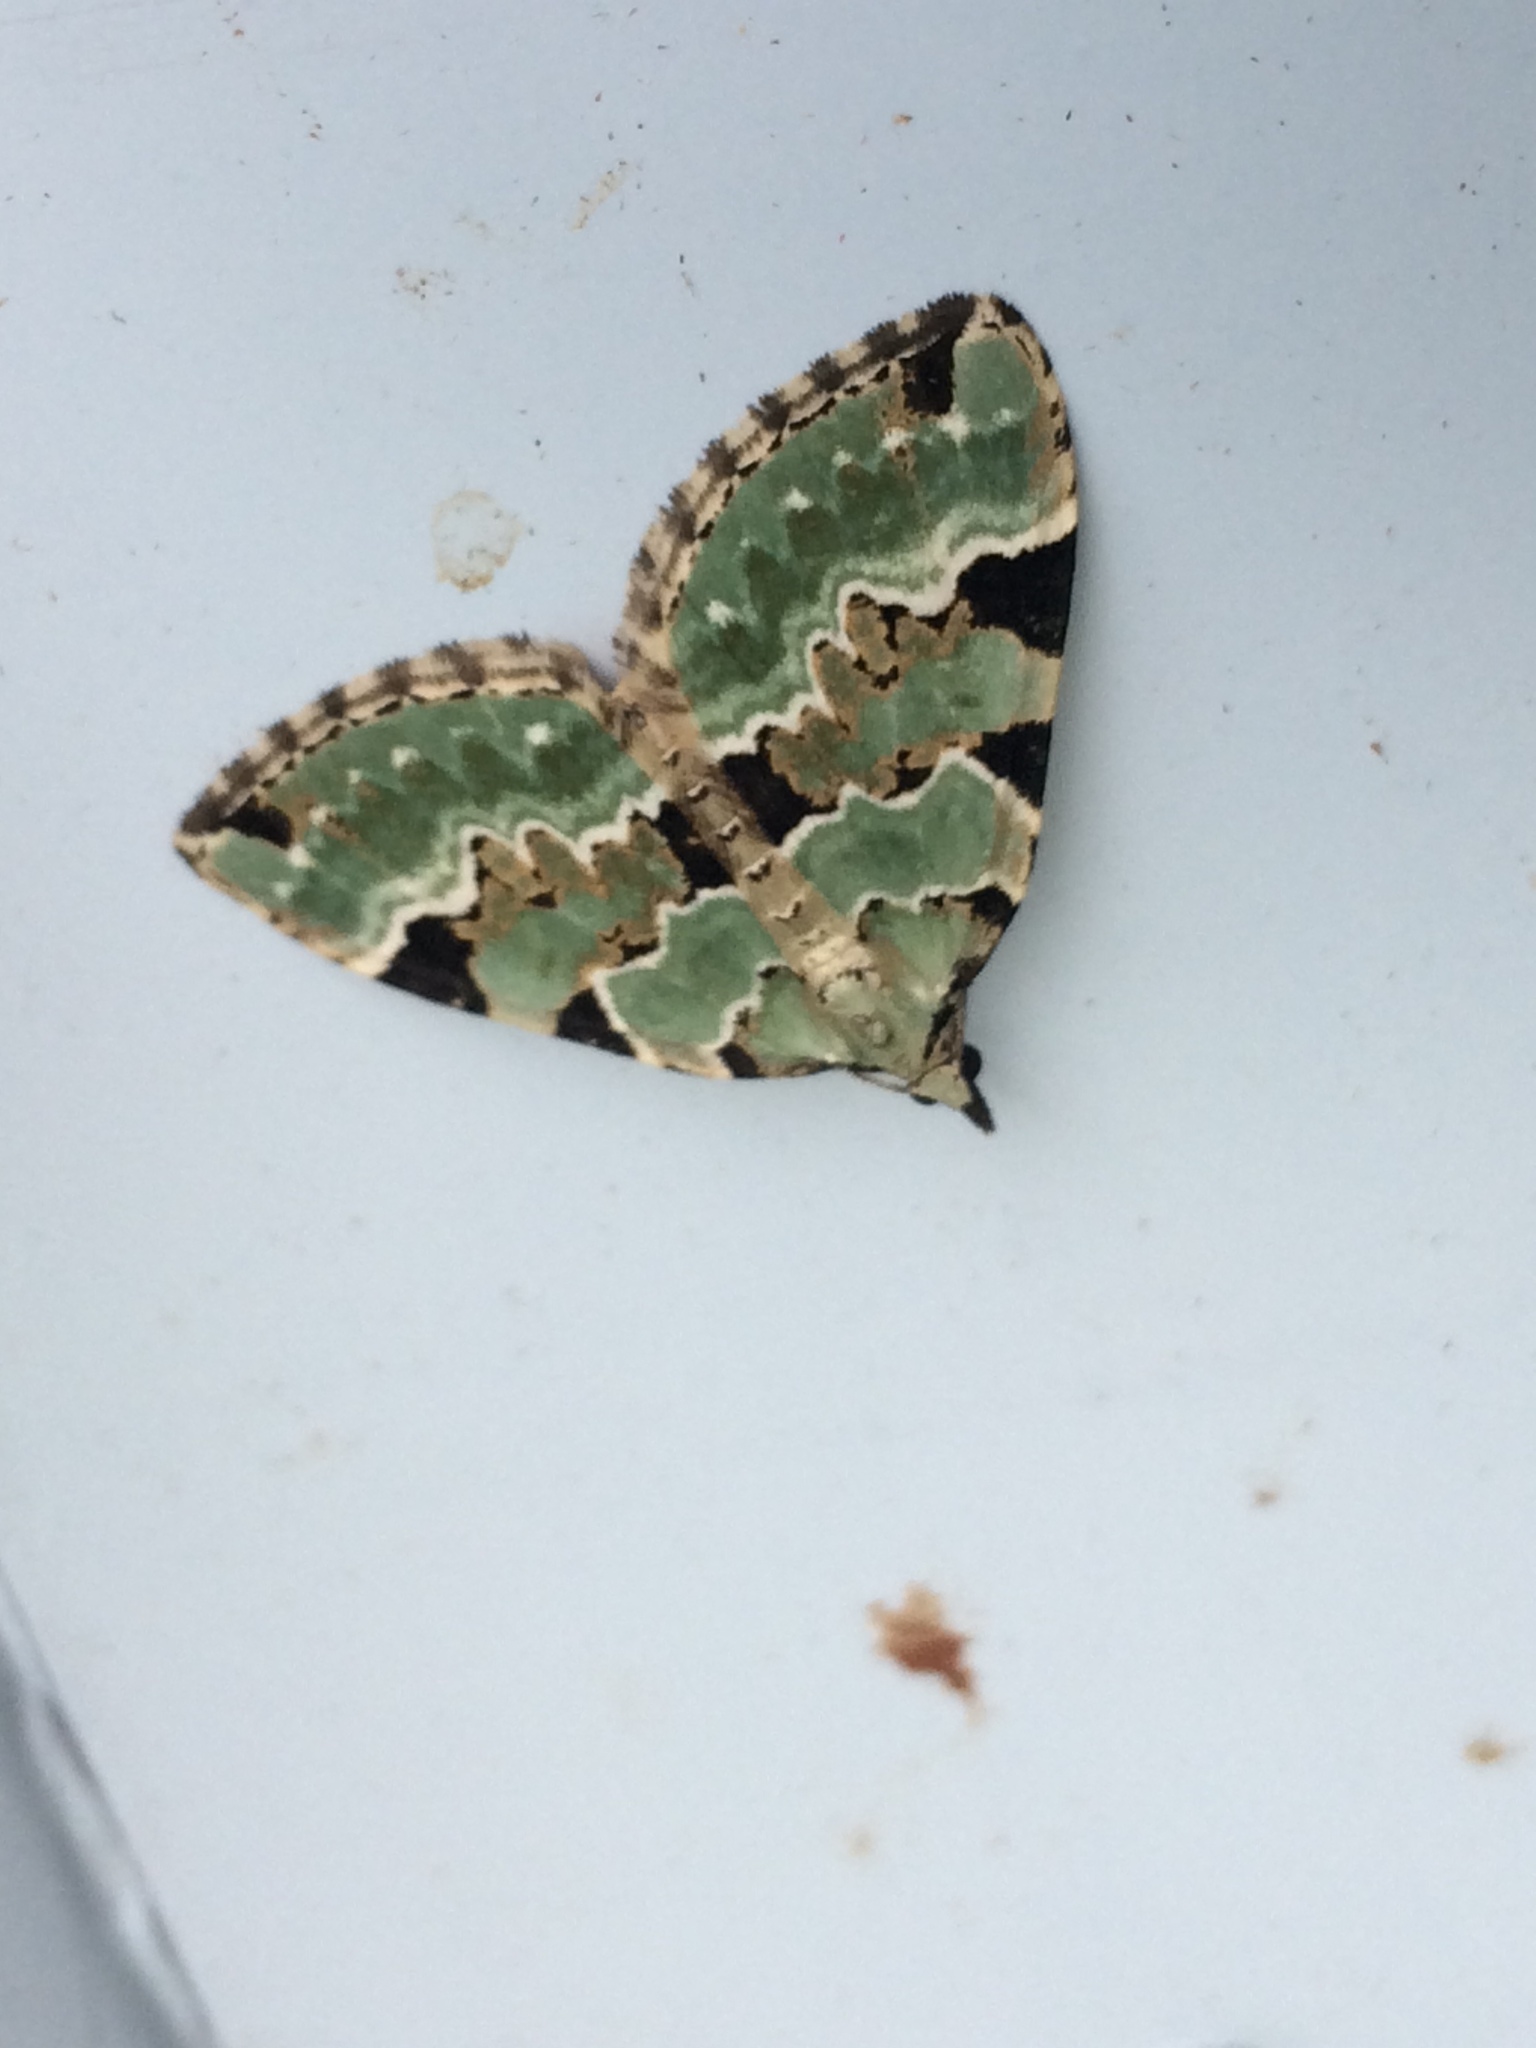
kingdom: Animalia
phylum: Arthropoda
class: Insecta
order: Lepidoptera
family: Geometridae
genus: Colostygia
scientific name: Colostygia pectinataria
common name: Green carpet
